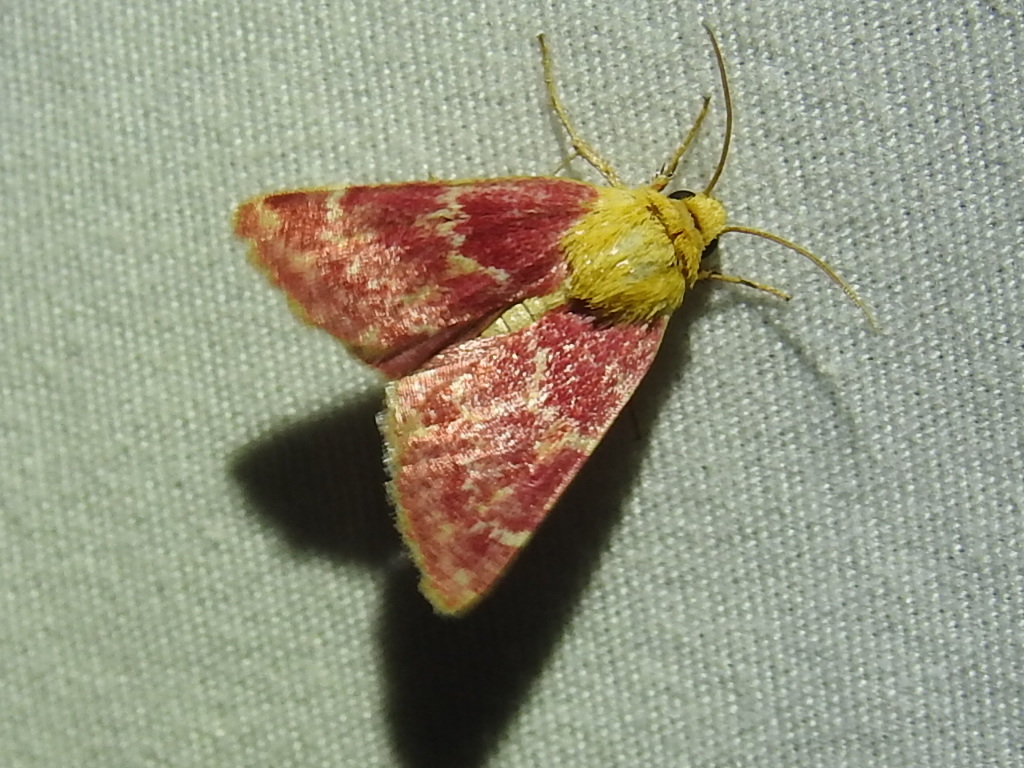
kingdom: Animalia
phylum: Arthropoda
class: Insecta
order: Lepidoptera
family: Noctuidae
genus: Schinia
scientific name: Schinia volupia
